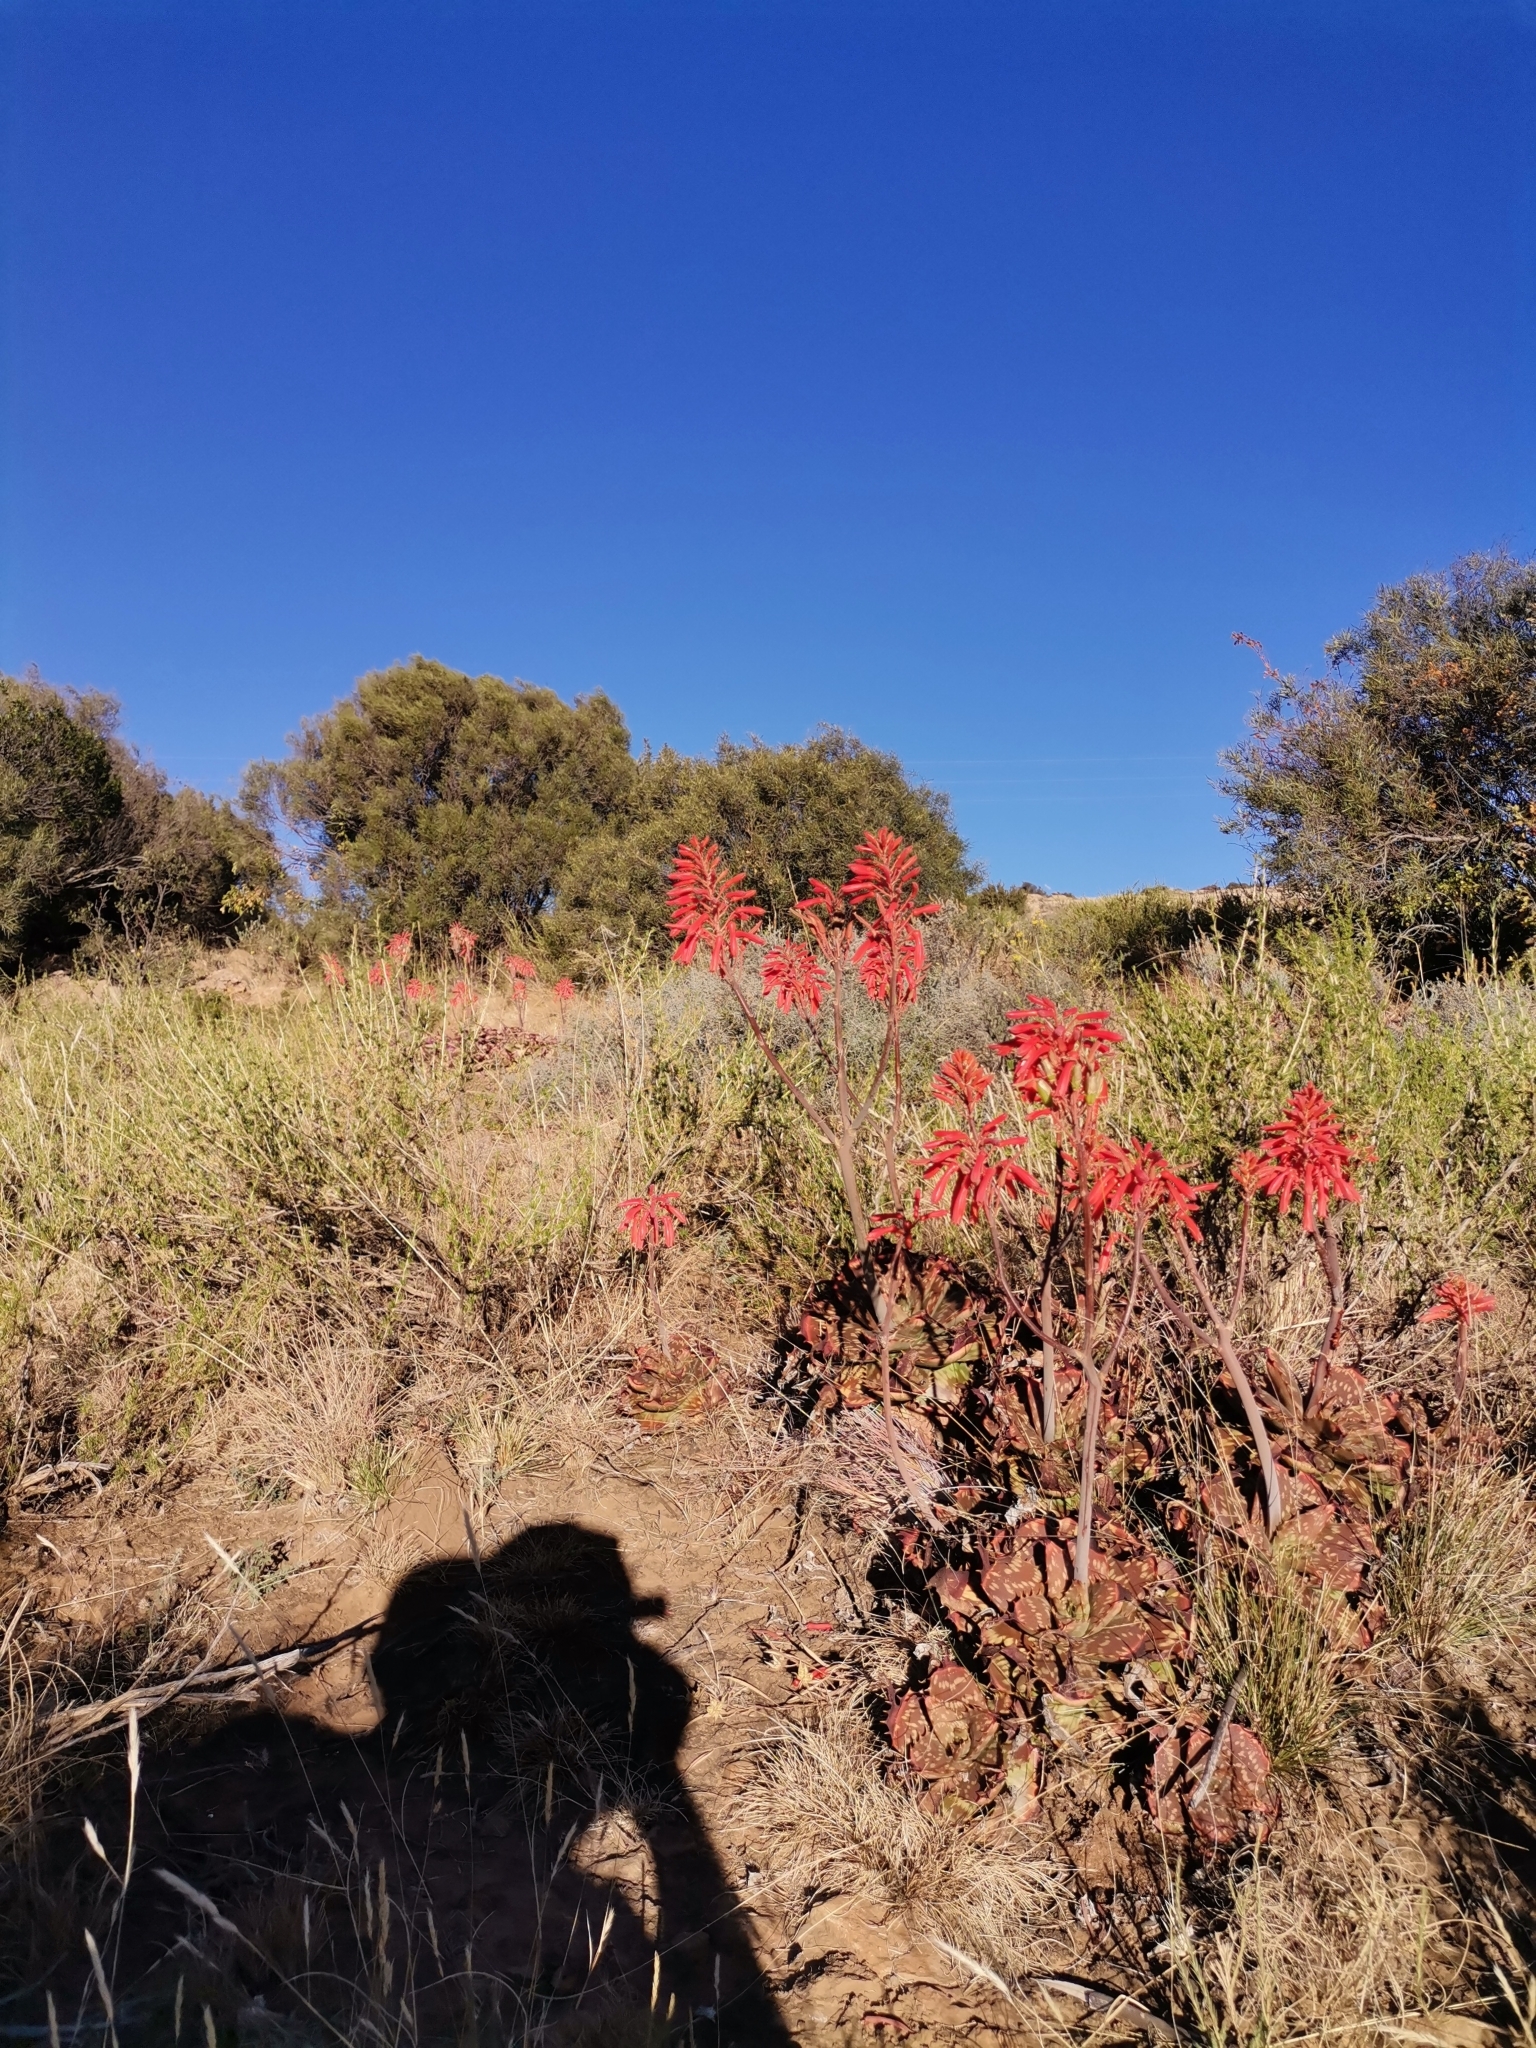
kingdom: Plantae
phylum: Tracheophyta
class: Liliopsida
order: Asparagales
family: Asphodelaceae
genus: Aloe
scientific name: Aloe grandidentata
